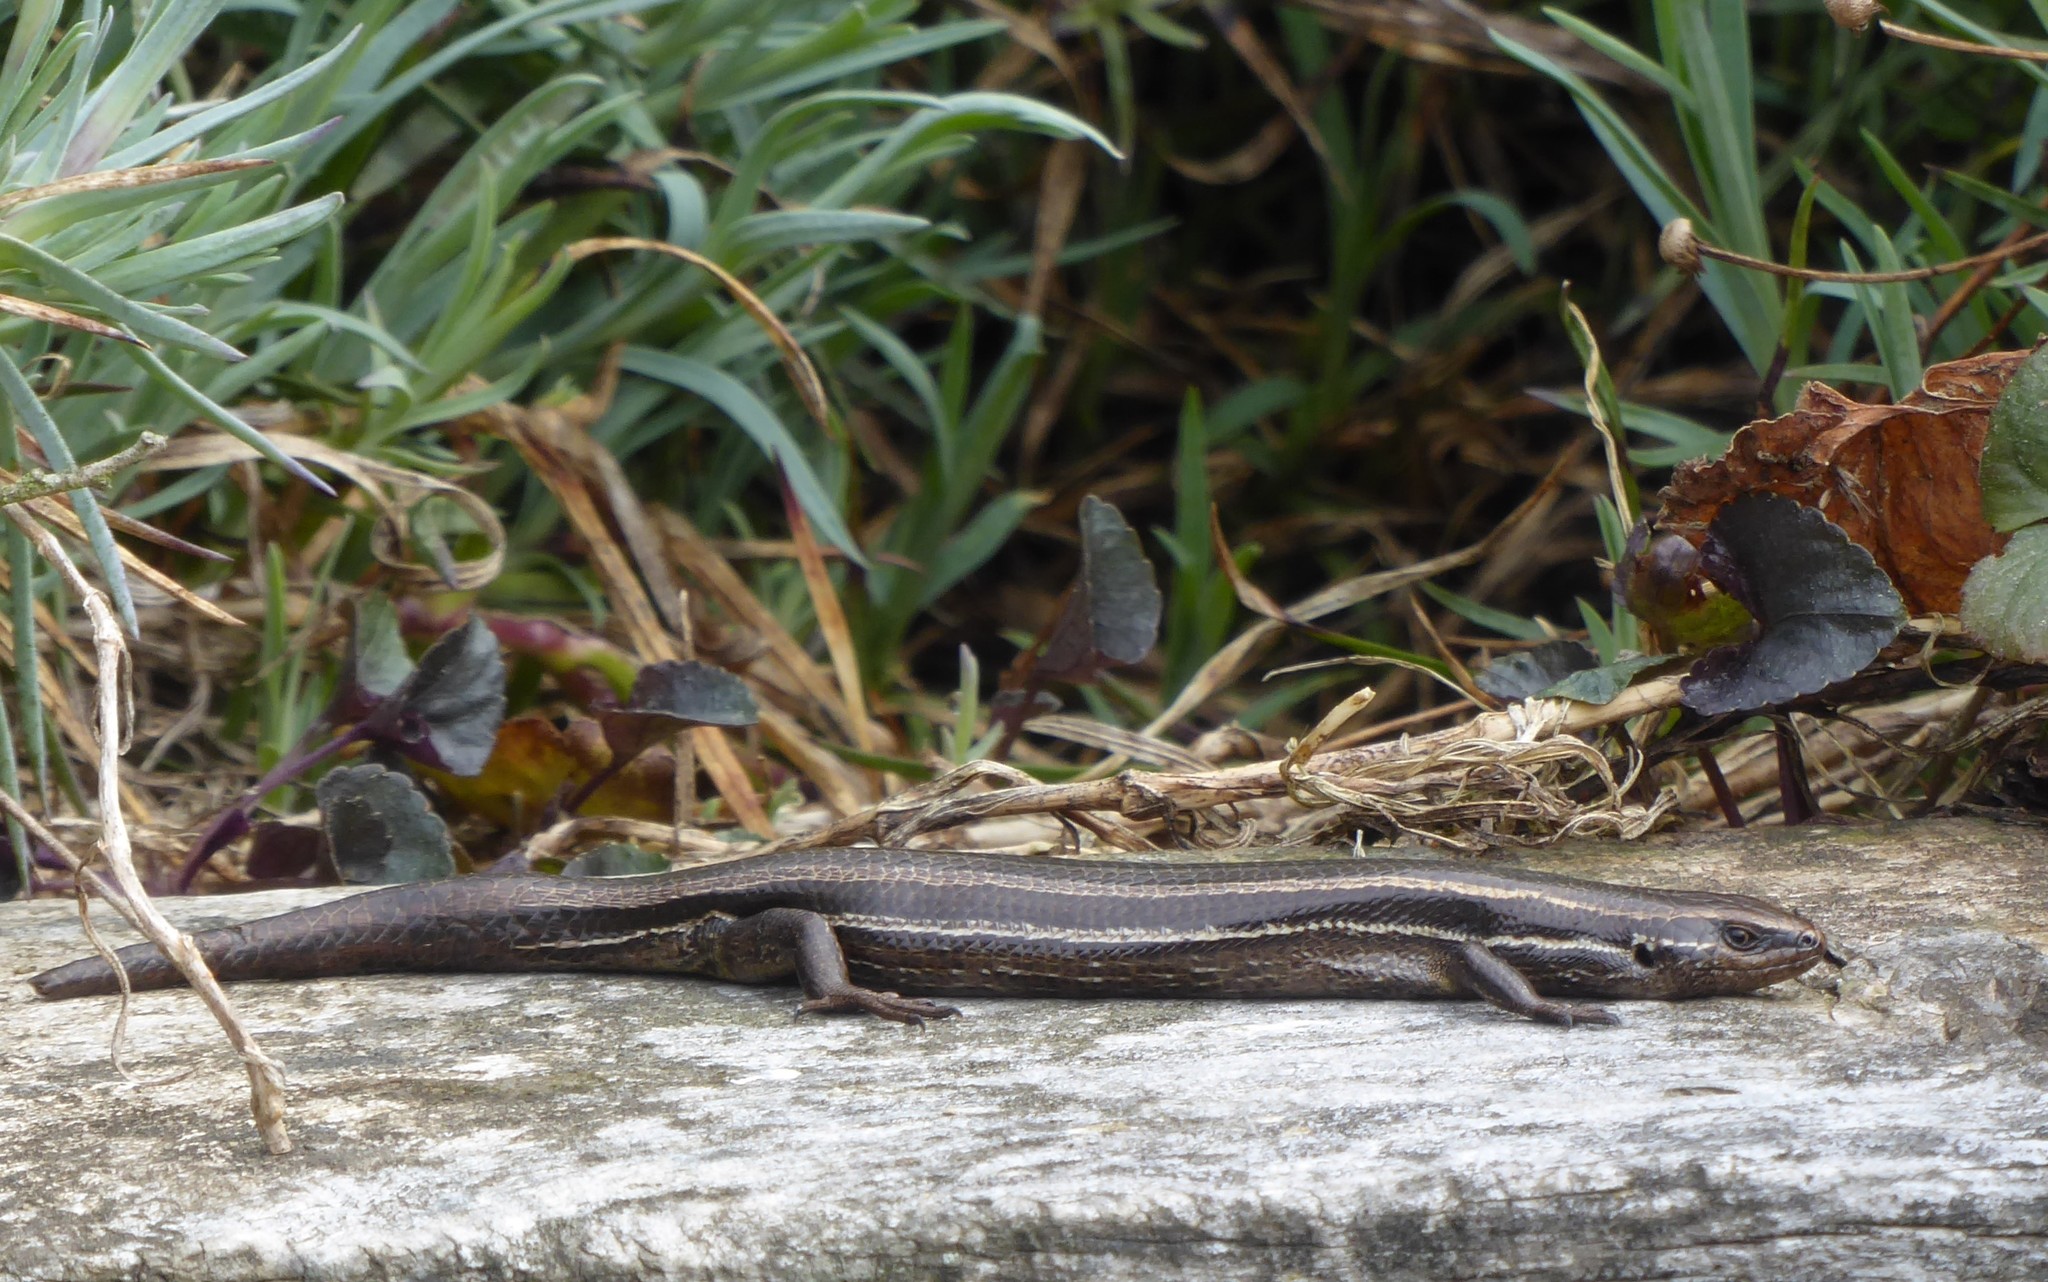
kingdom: Animalia
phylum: Chordata
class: Squamata
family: Scincidae
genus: Oligosoma
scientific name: Oligosoma polychroma
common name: Common new zealand skink
